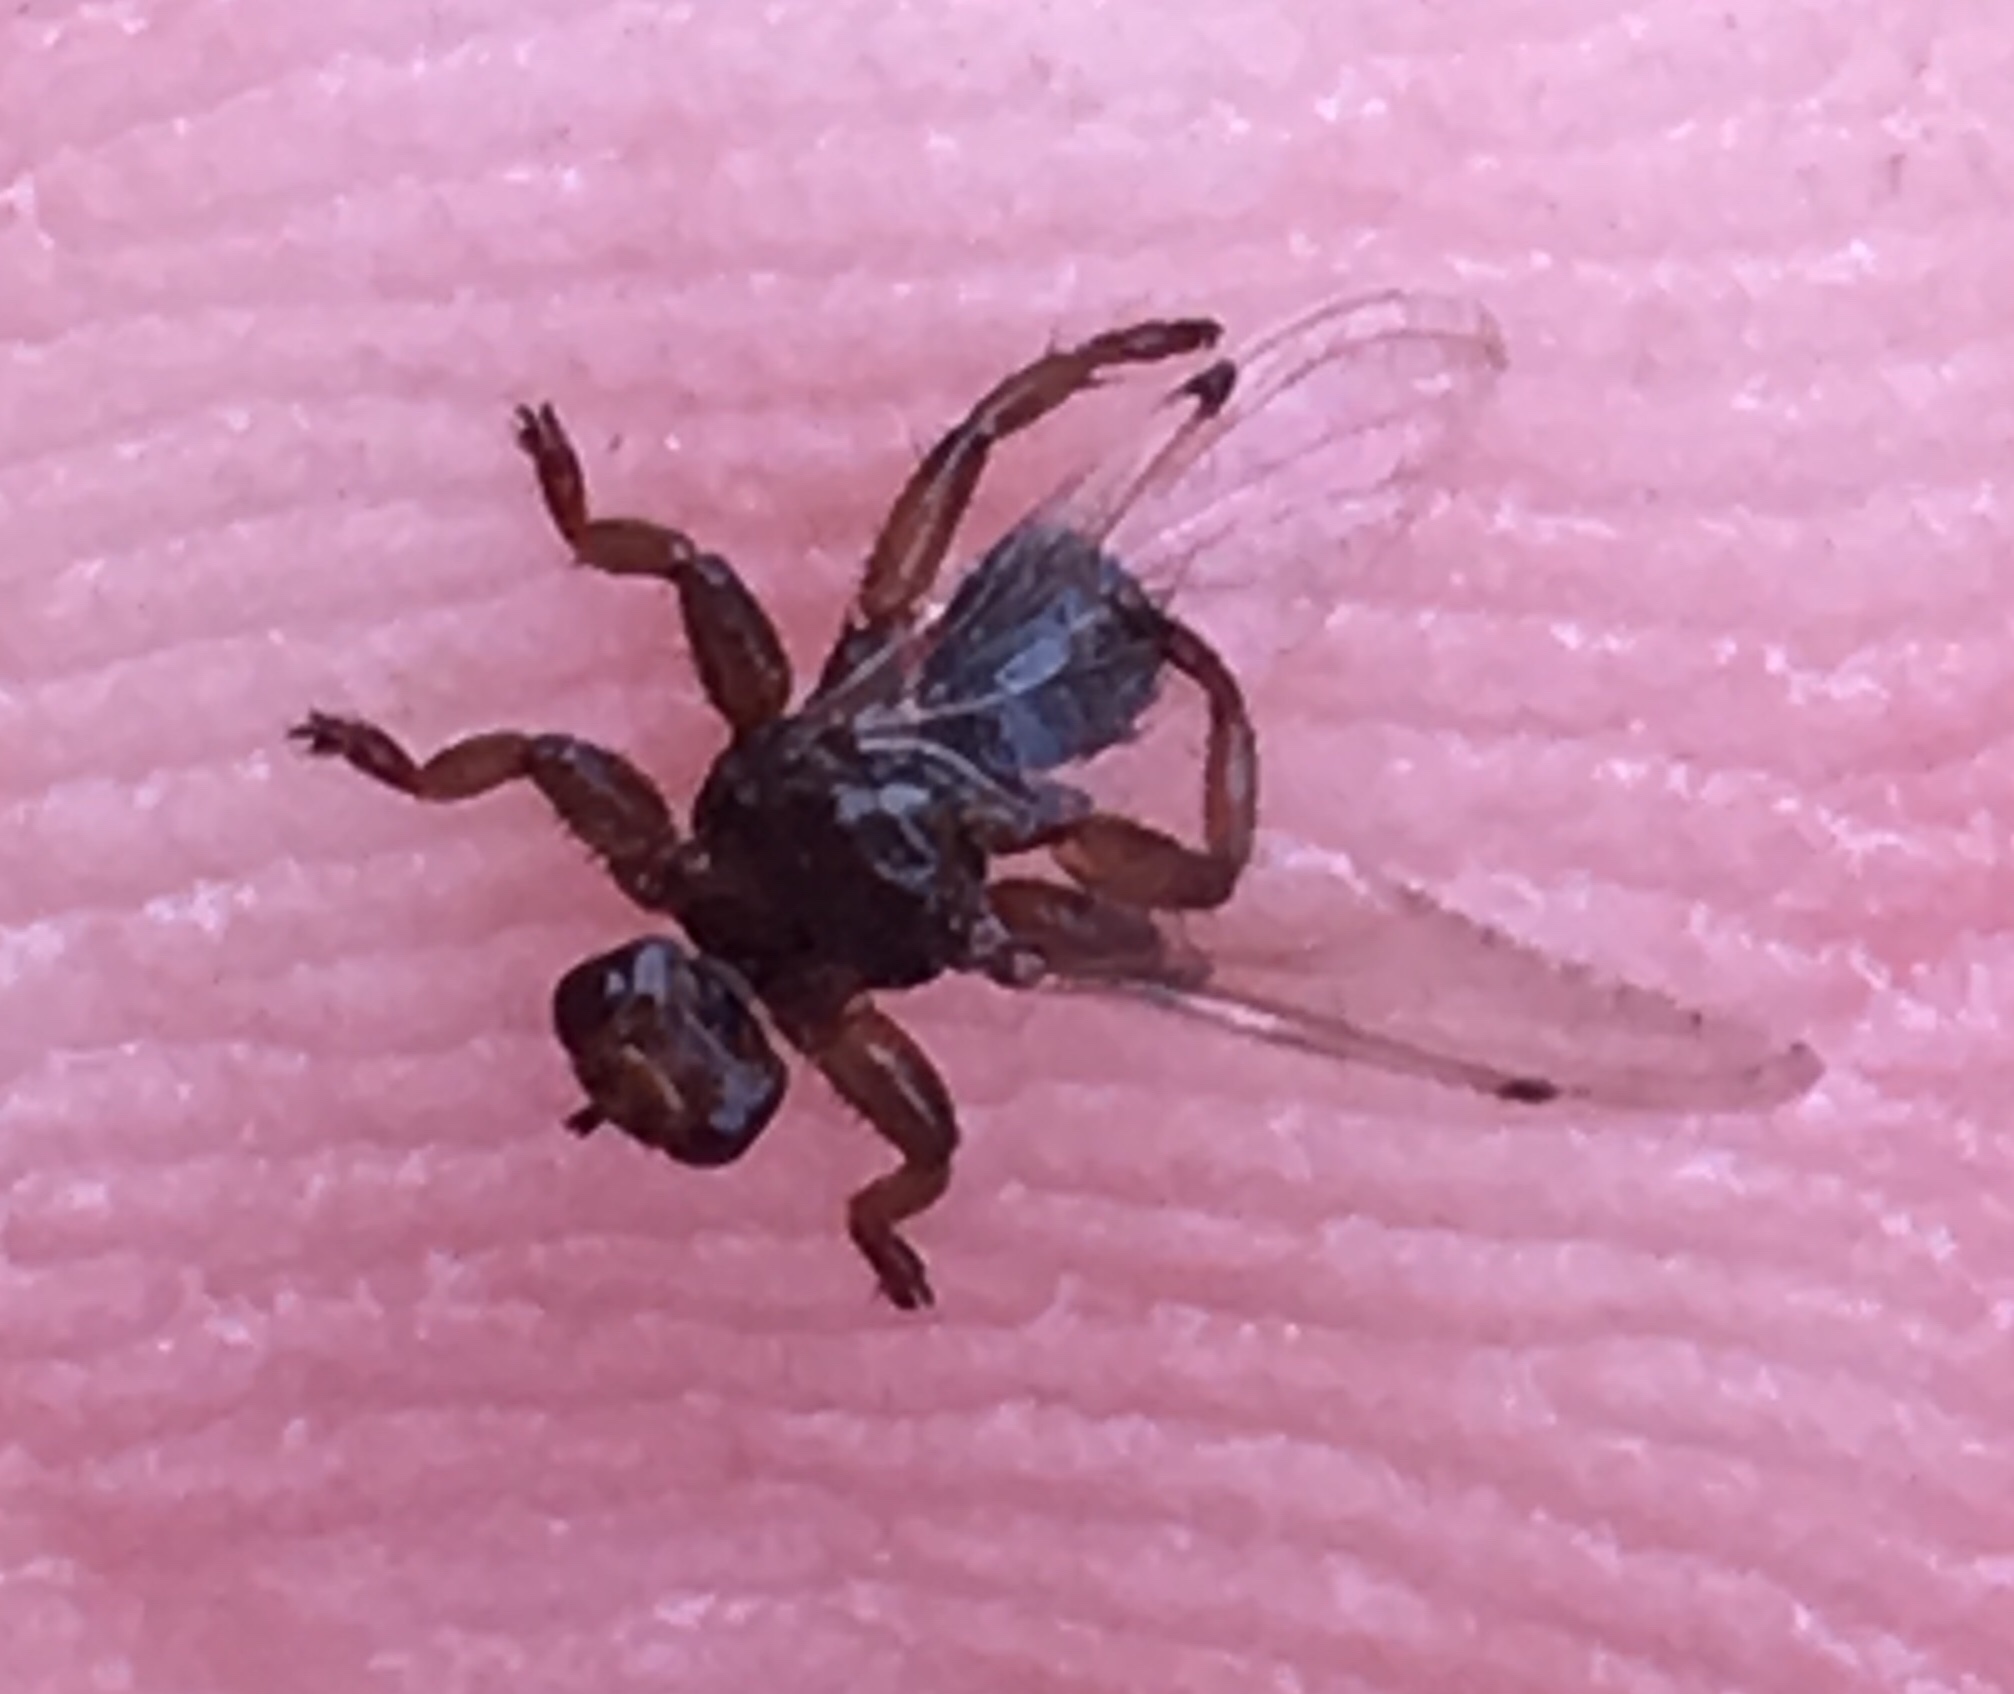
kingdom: Animalia
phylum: Arthropoda
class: Insecta
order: Diptera
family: Hippoboscidae
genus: Lipoptena
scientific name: Lipoptena depressa
